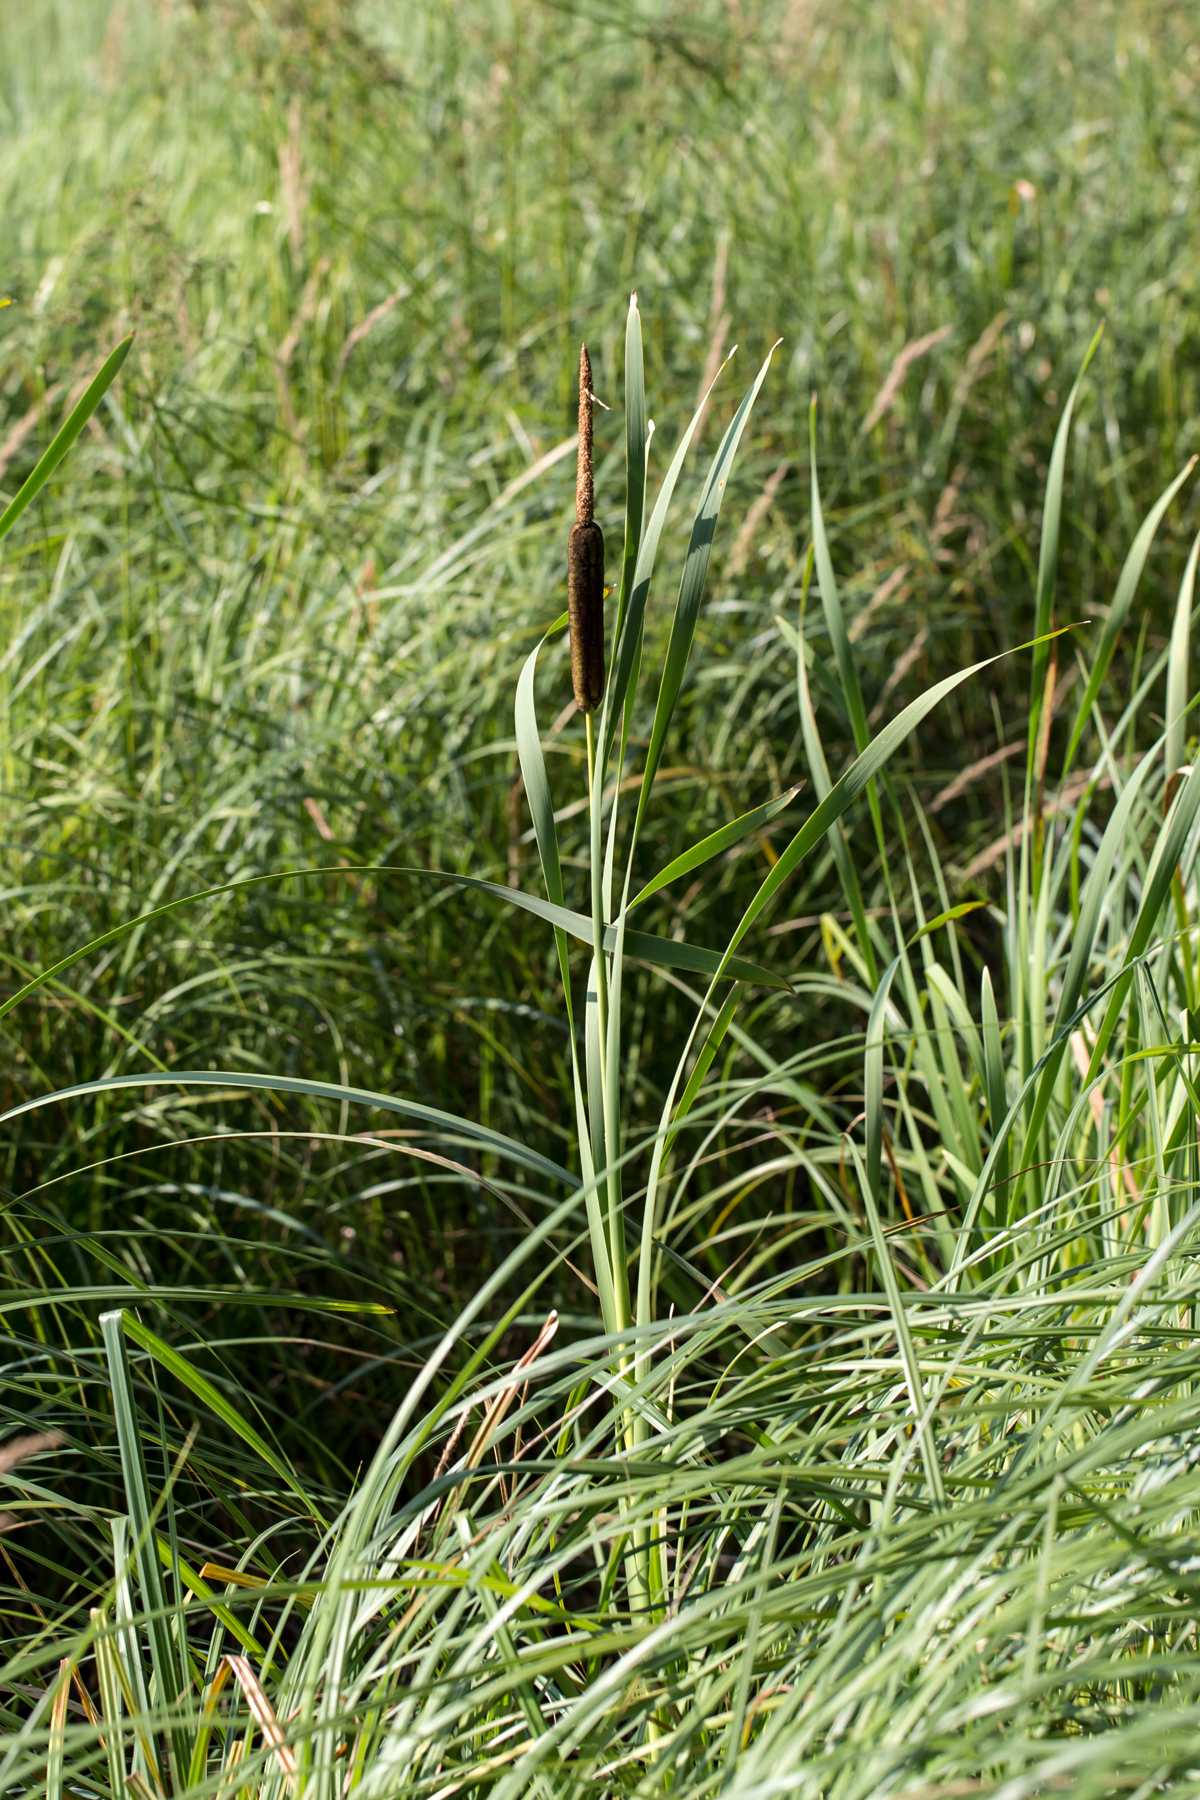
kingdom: Plantae
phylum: Tracheophyta
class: Liliopsida
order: Poales
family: Typhaceae
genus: Typha
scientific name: Typha latifolia
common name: Broadleaf cattail
